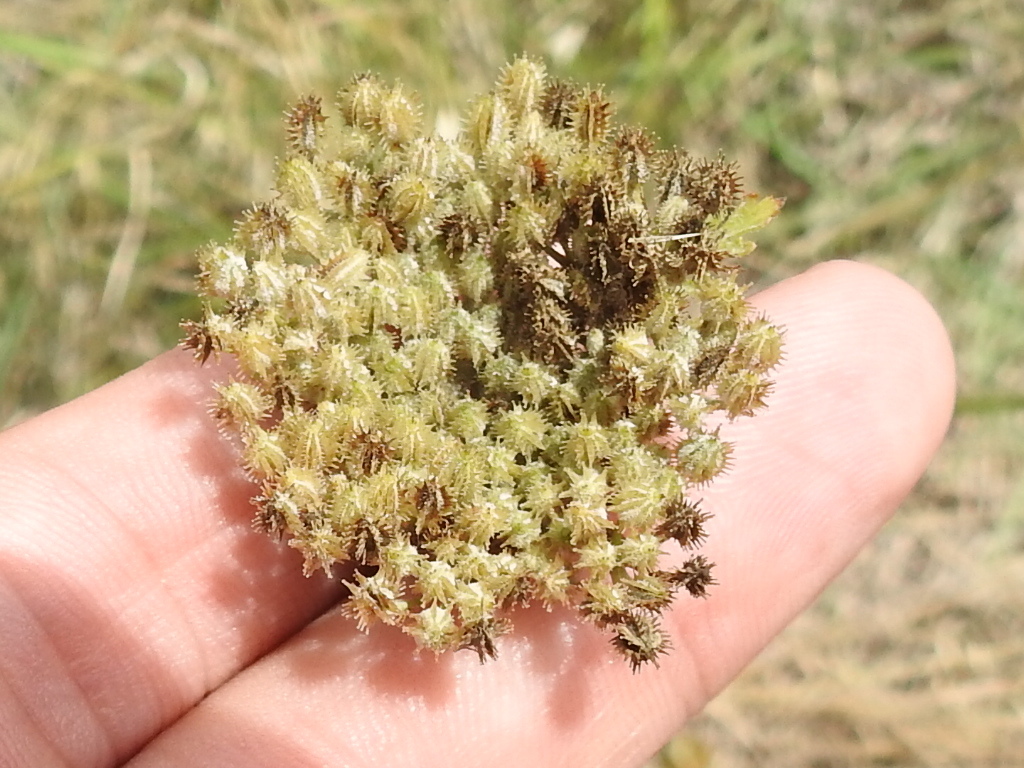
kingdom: Plantae
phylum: Tracheophyta
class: Magnoliopsida
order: Apiales
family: Apiaceae
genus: Daucus
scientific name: Daucus pusillus
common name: Southwest wild carrot
